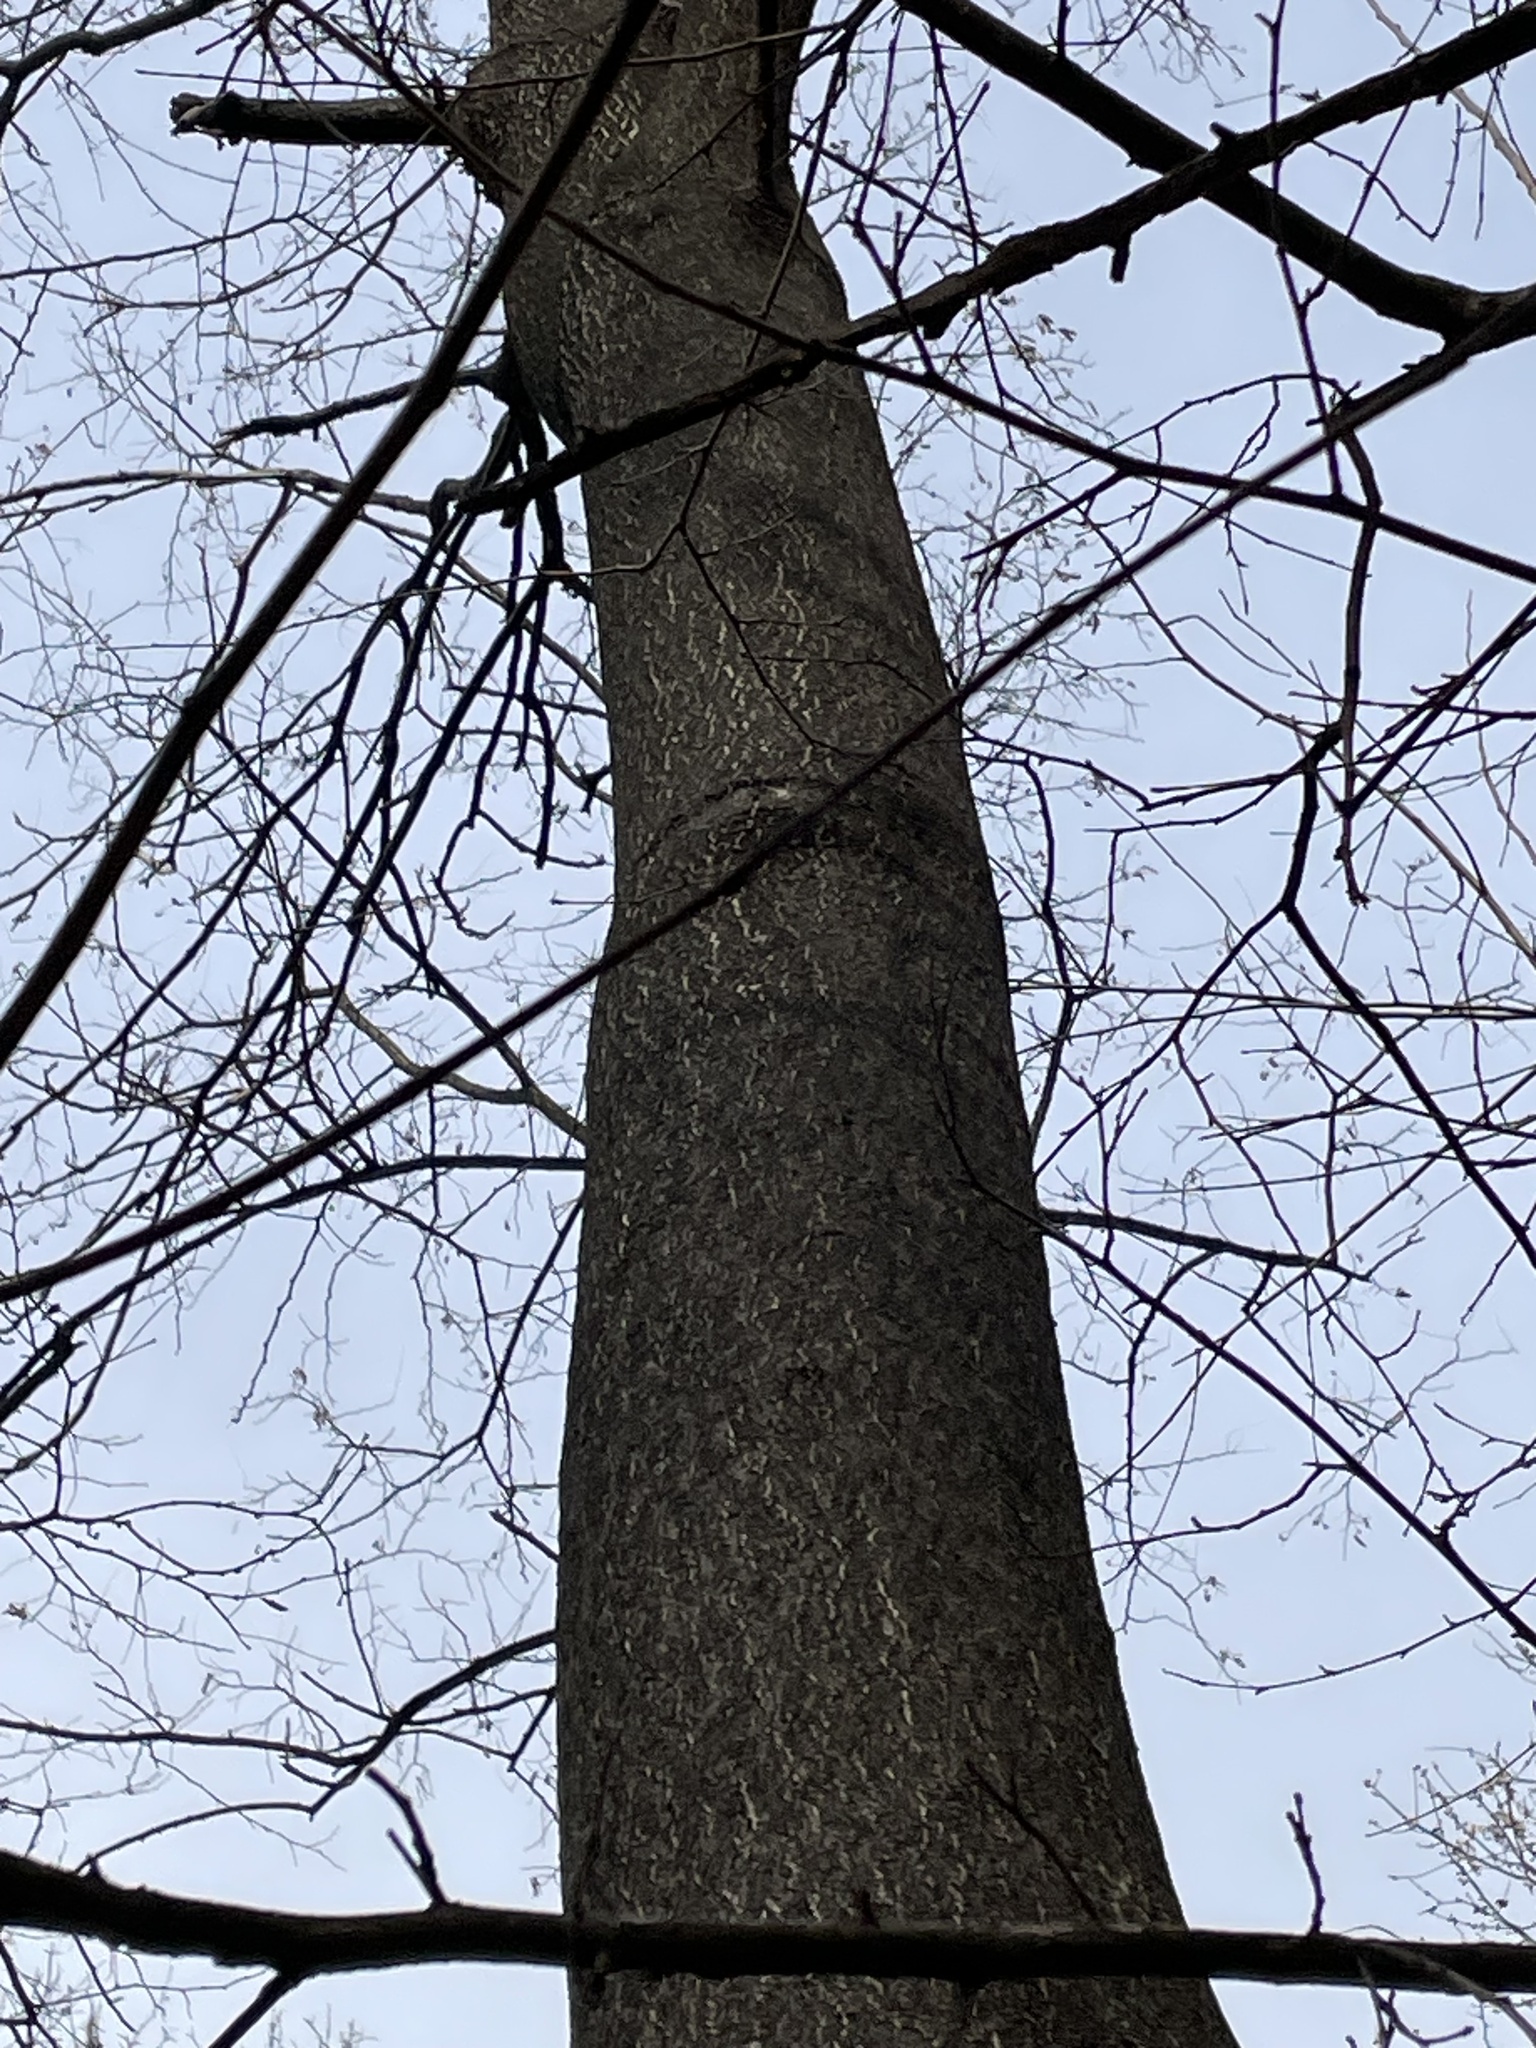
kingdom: Plantae
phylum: Tracheophyta
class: Magnoliopsida
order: Sapindales
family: Simaroubaceae
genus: Ailanthus
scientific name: Ailanthus altissima
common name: Tree-of-heaven
